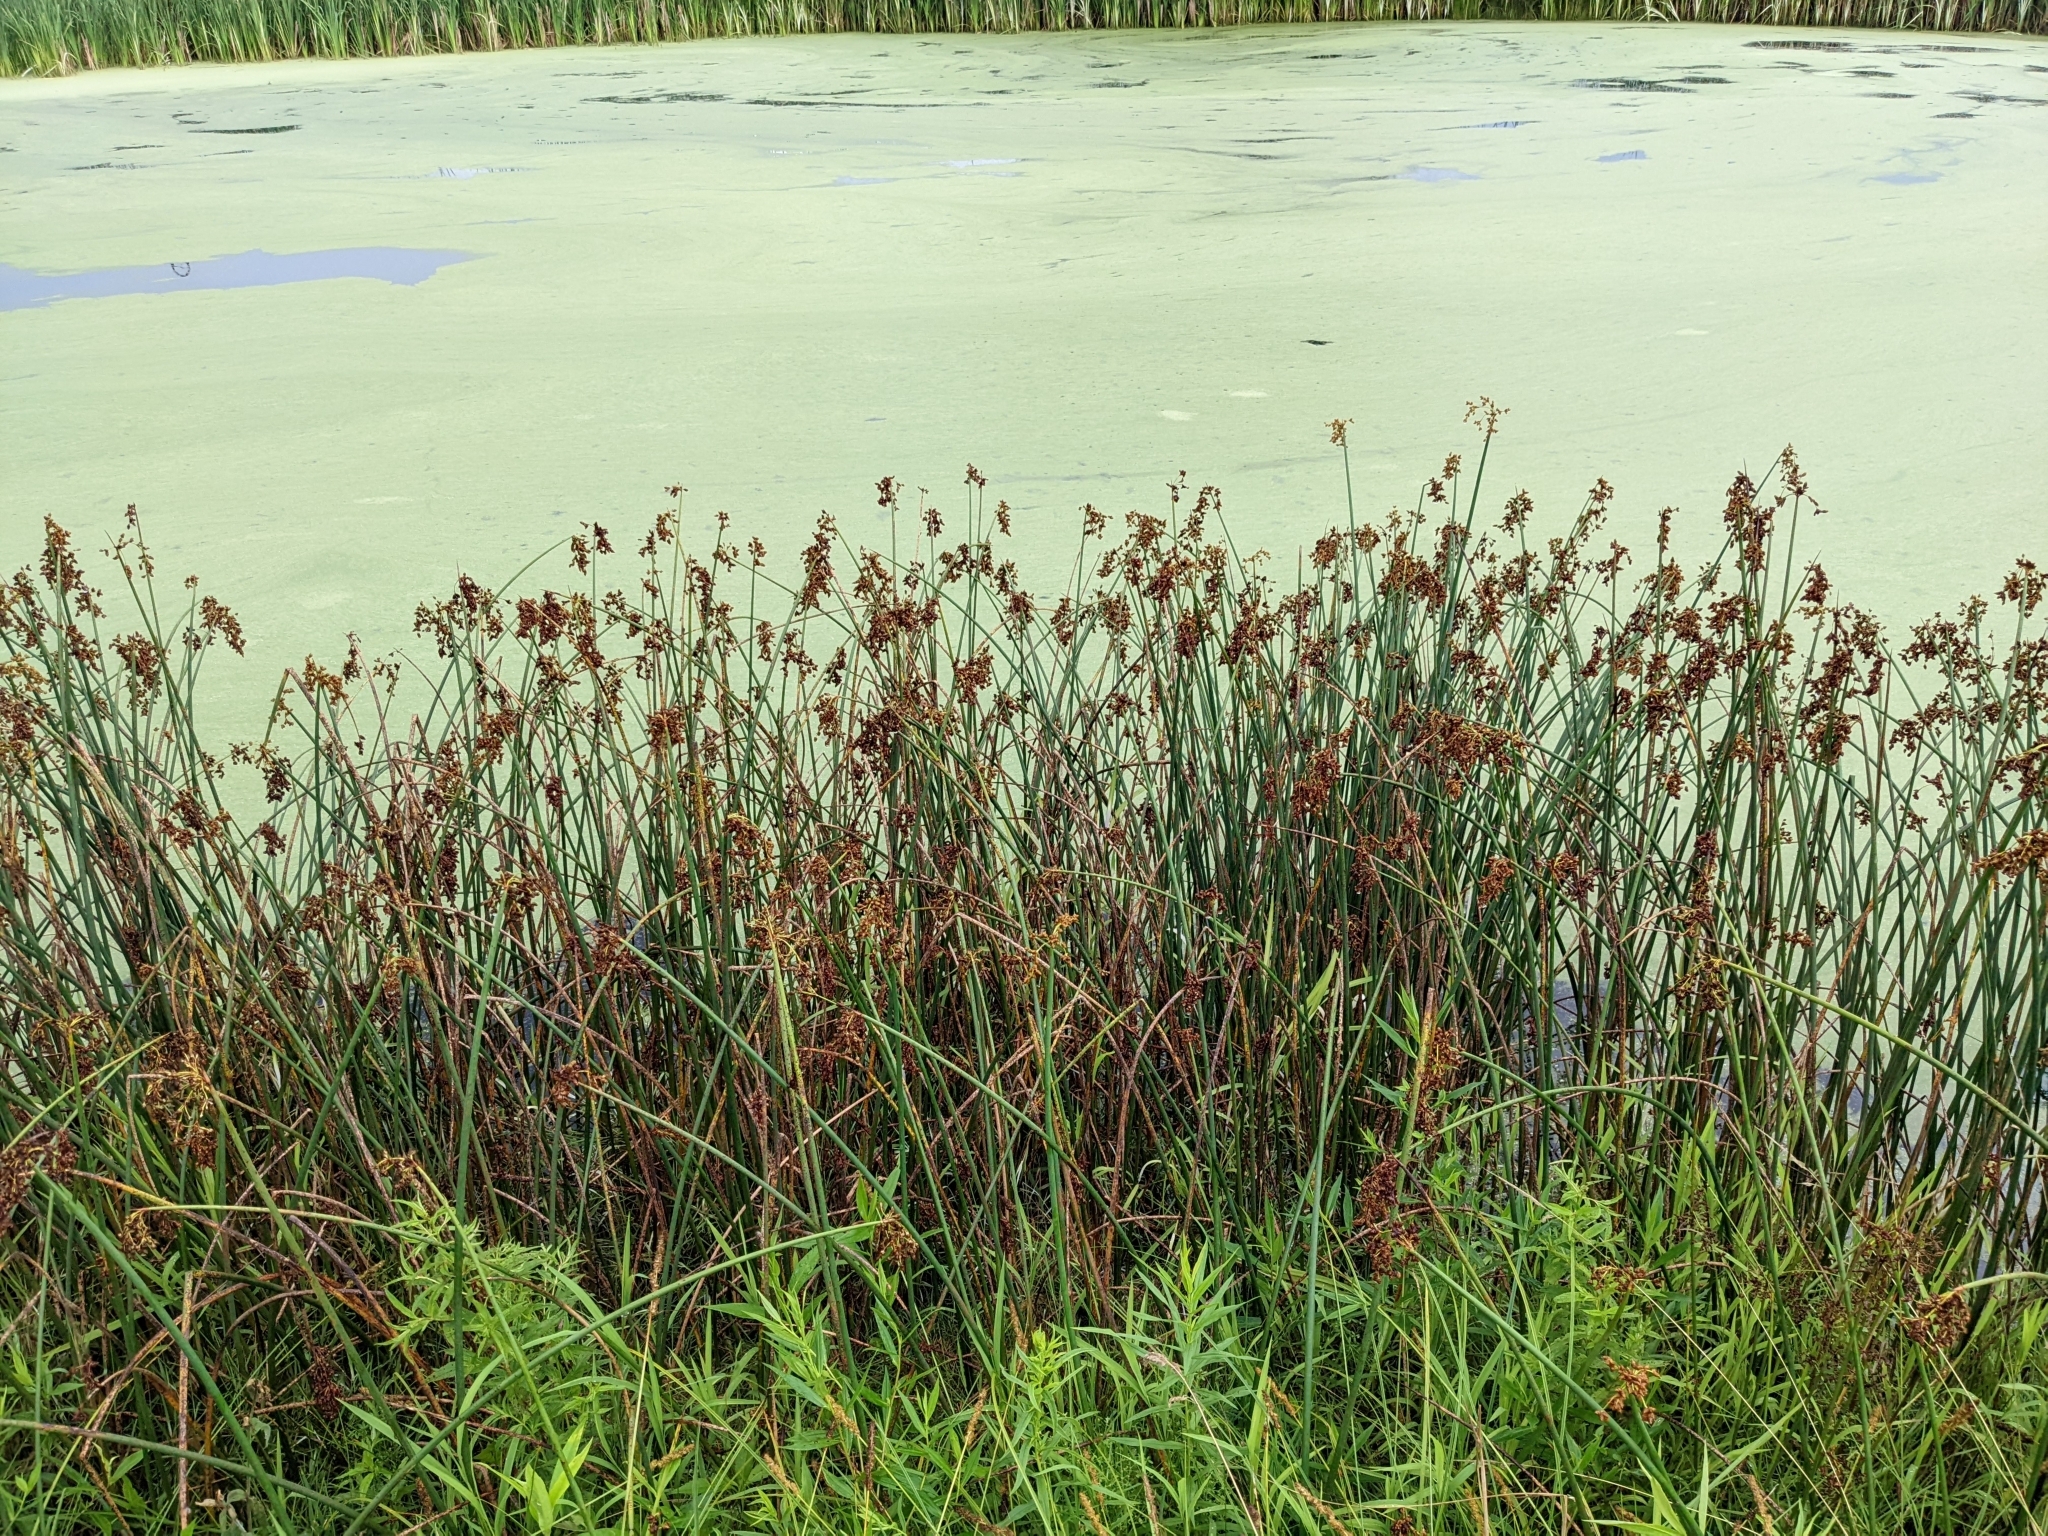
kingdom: Plantae
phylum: Tracheophyta
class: Liliopsida
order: Poales
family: Cyperaceae
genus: Schoenoplectus
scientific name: Schoenoplectus tabernaemontani
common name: Grey club-rush
